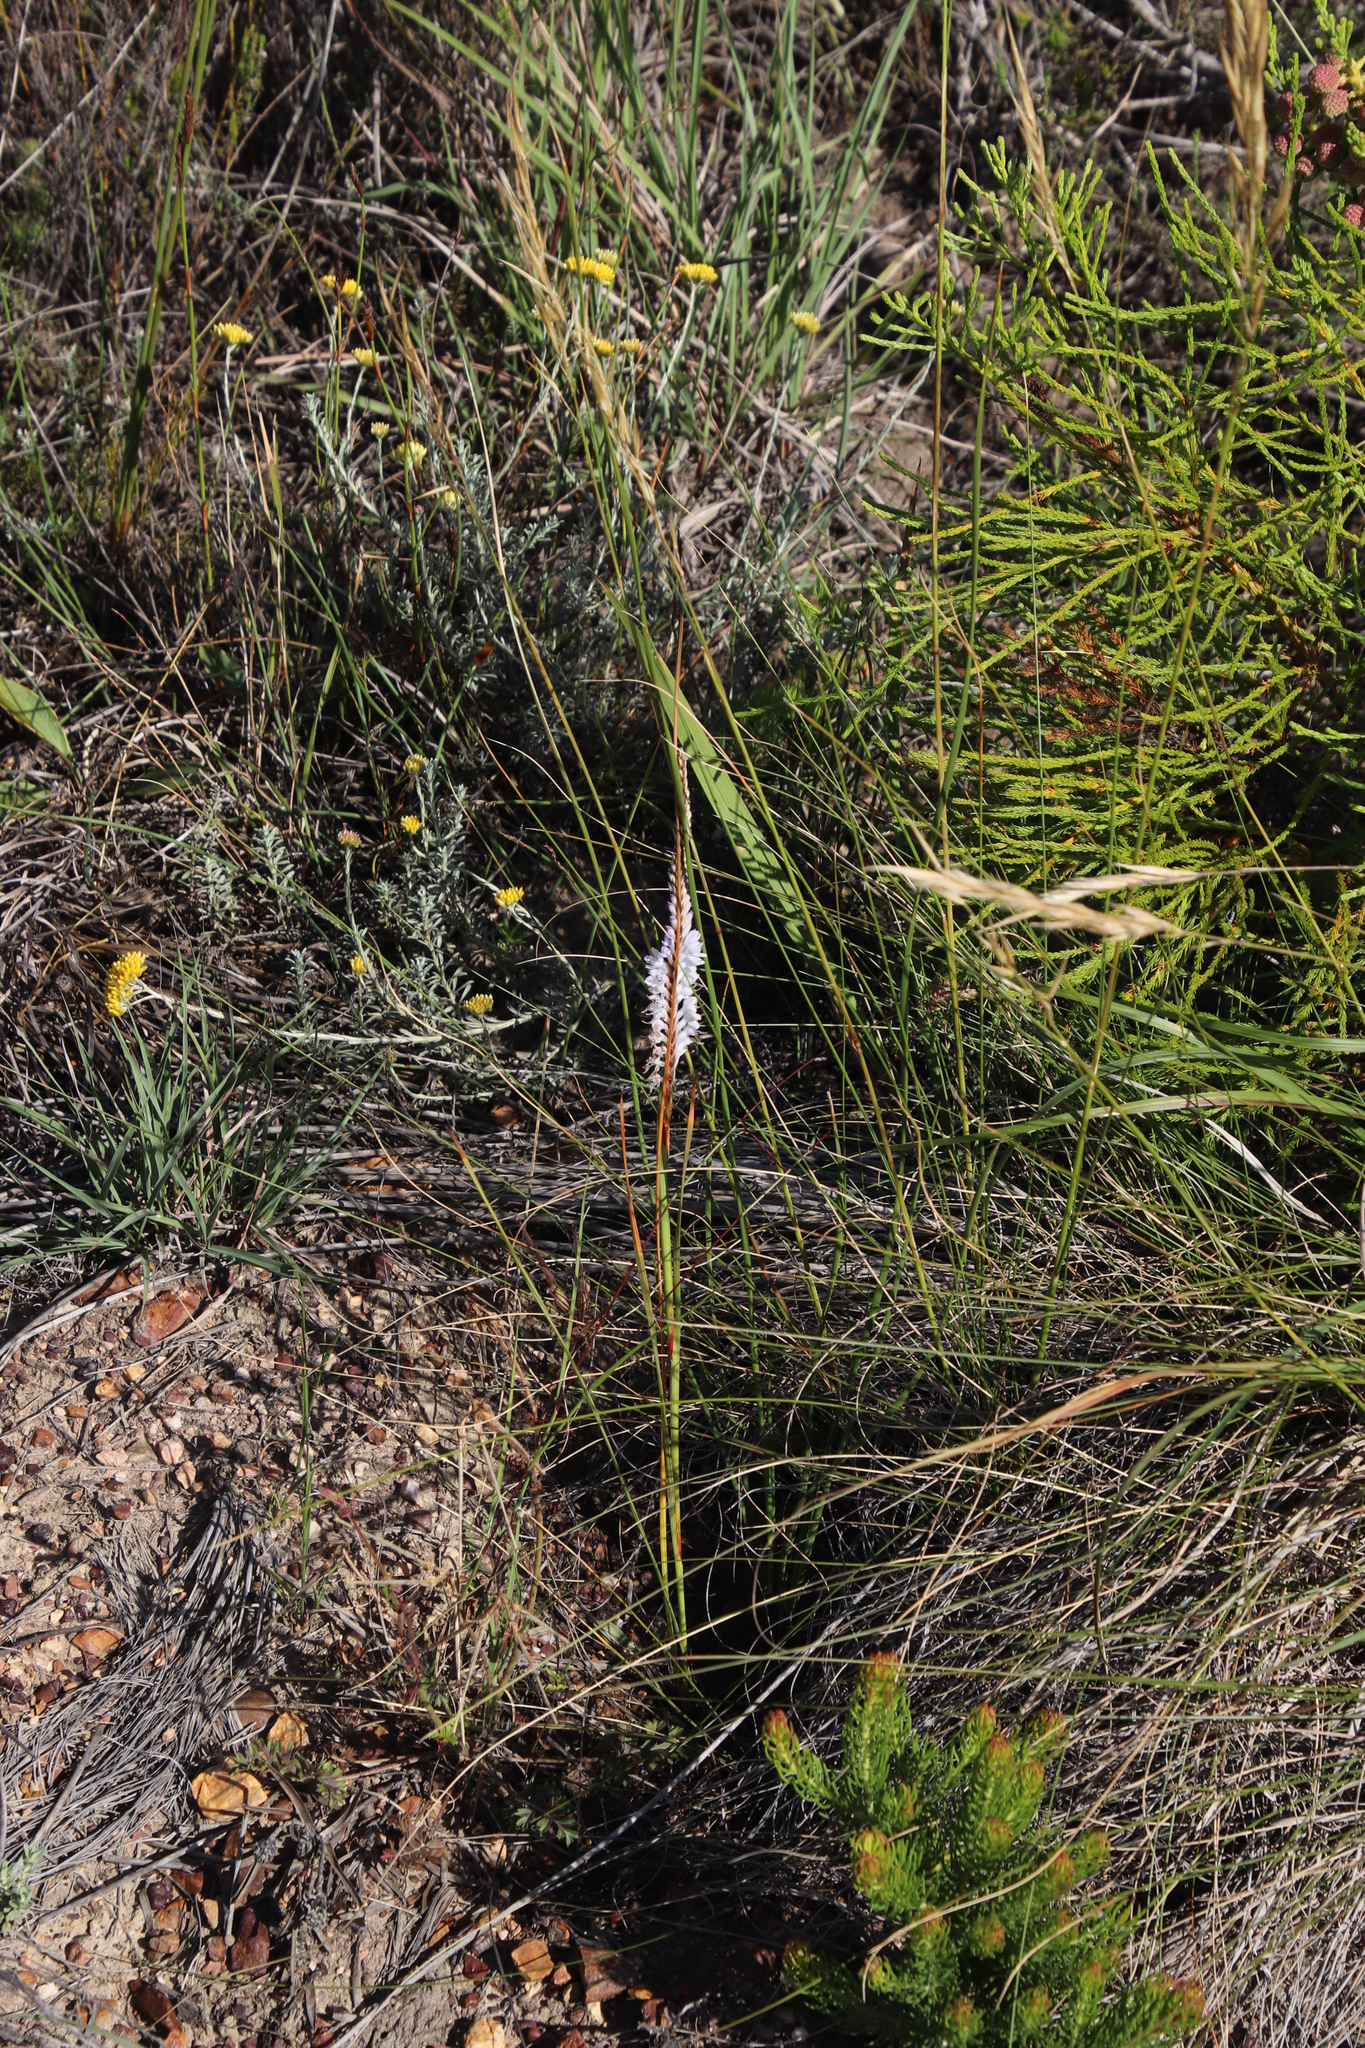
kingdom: Plantae
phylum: Tracheophyta
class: Liliopsida
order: Asparagales
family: Iridaceae
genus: Micranthus
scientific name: Micranthus filifolius
